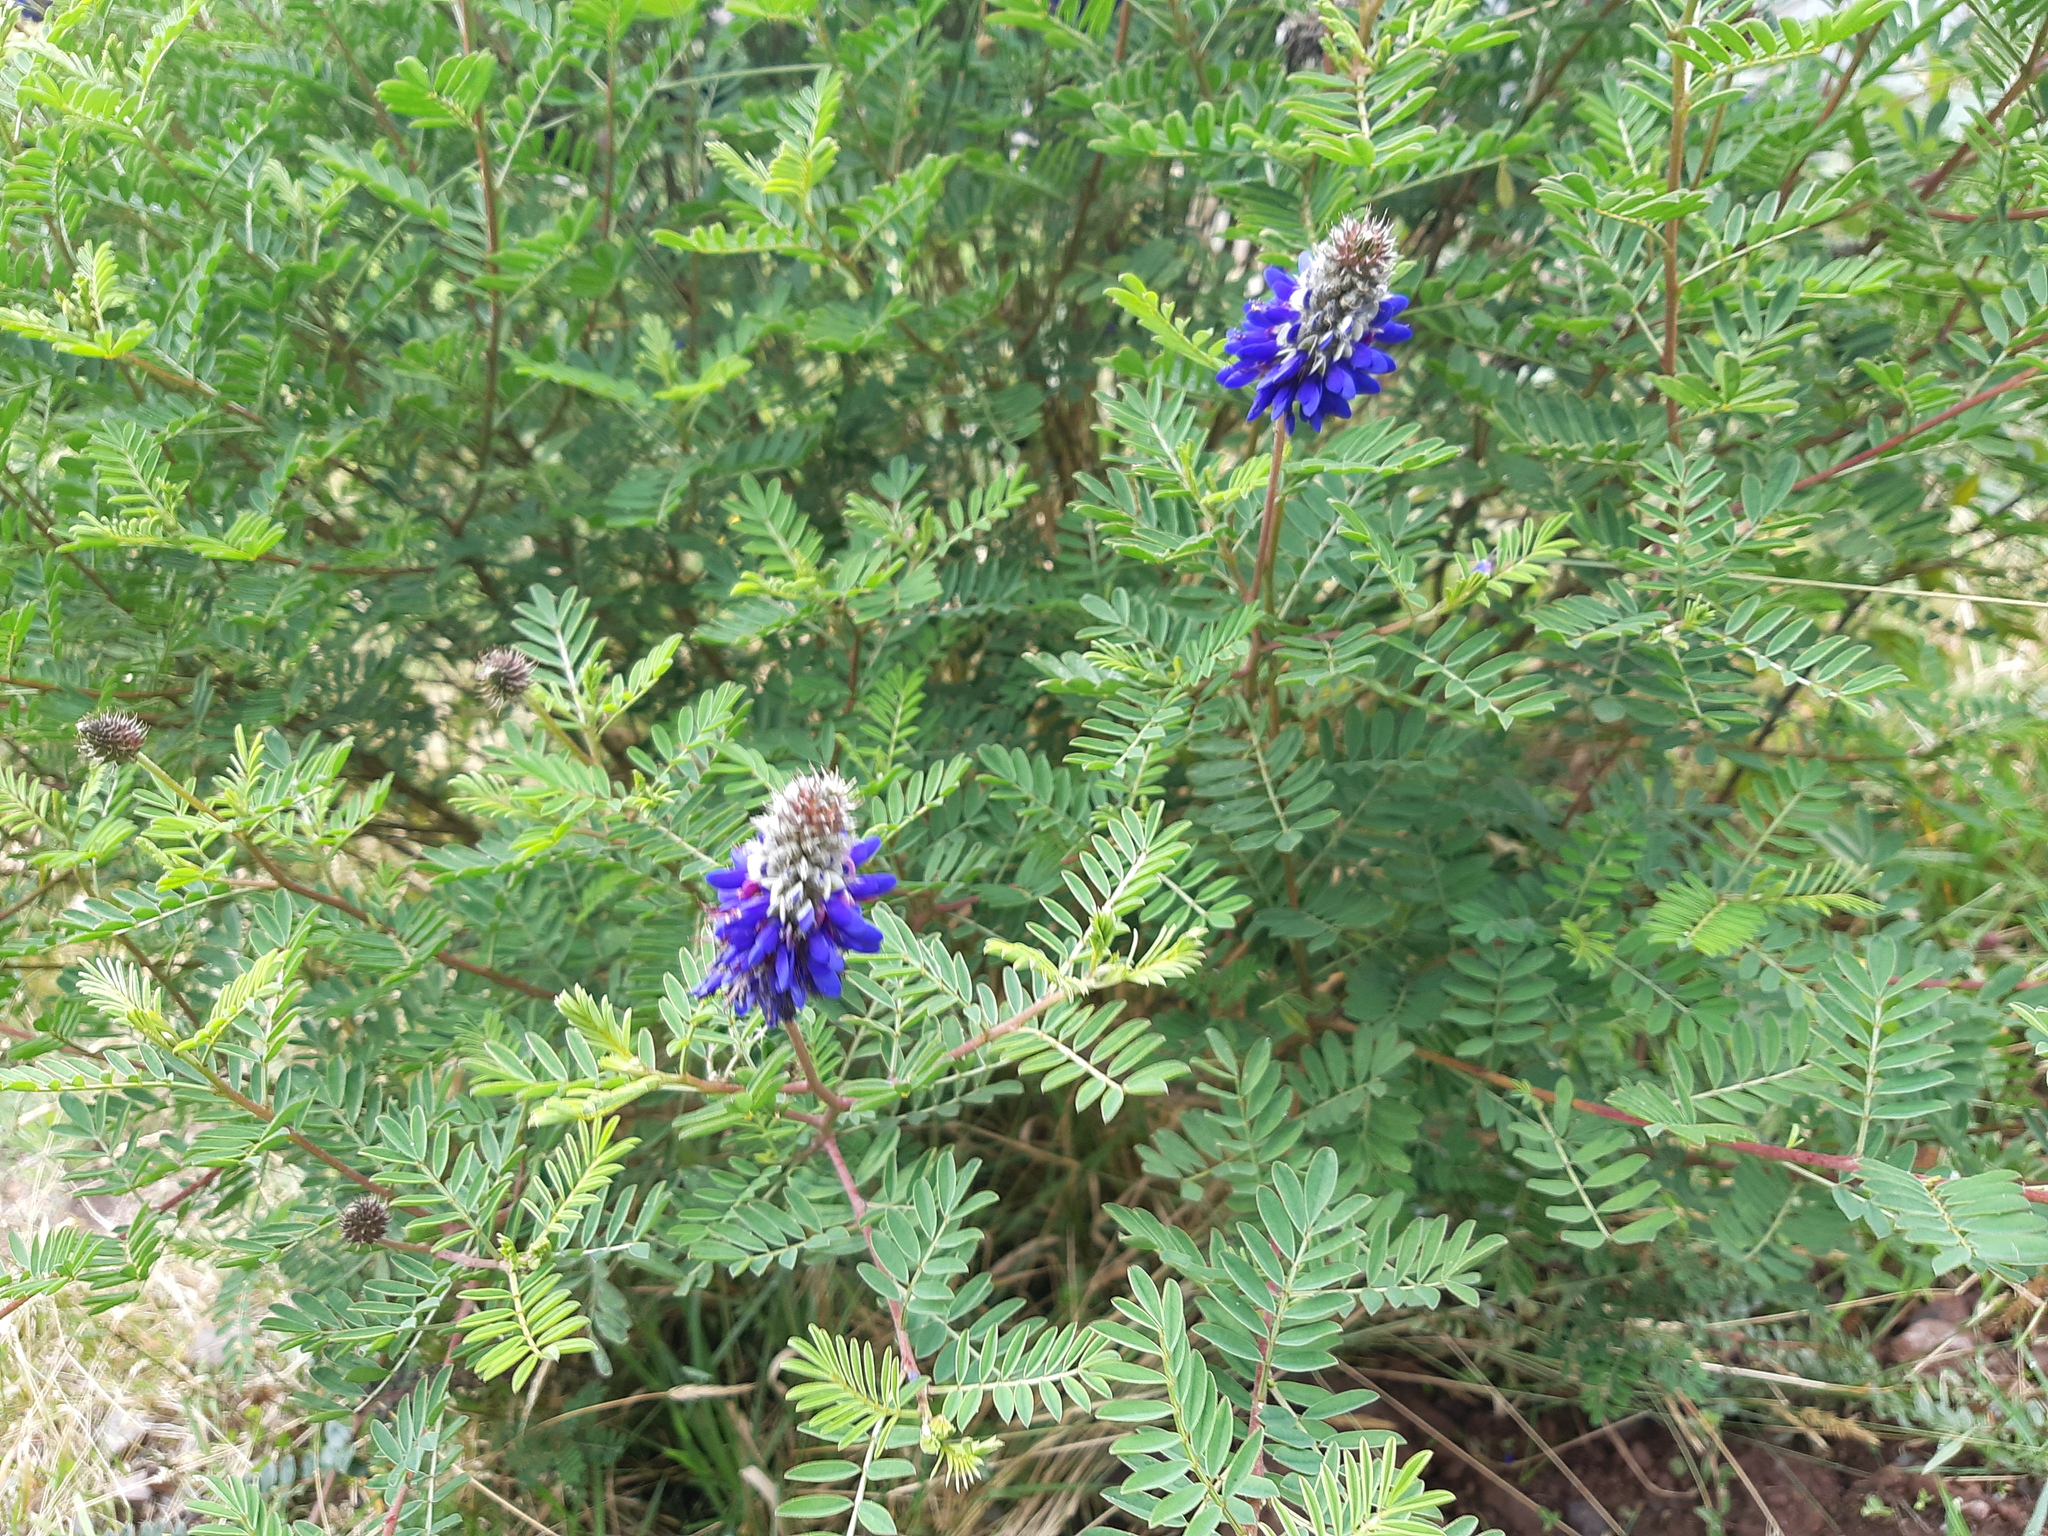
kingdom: Plantae
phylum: Tracheophyta
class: Magnoliopsida
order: Fabales
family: Fabaceae
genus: Dalea
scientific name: Dalea coerulea
